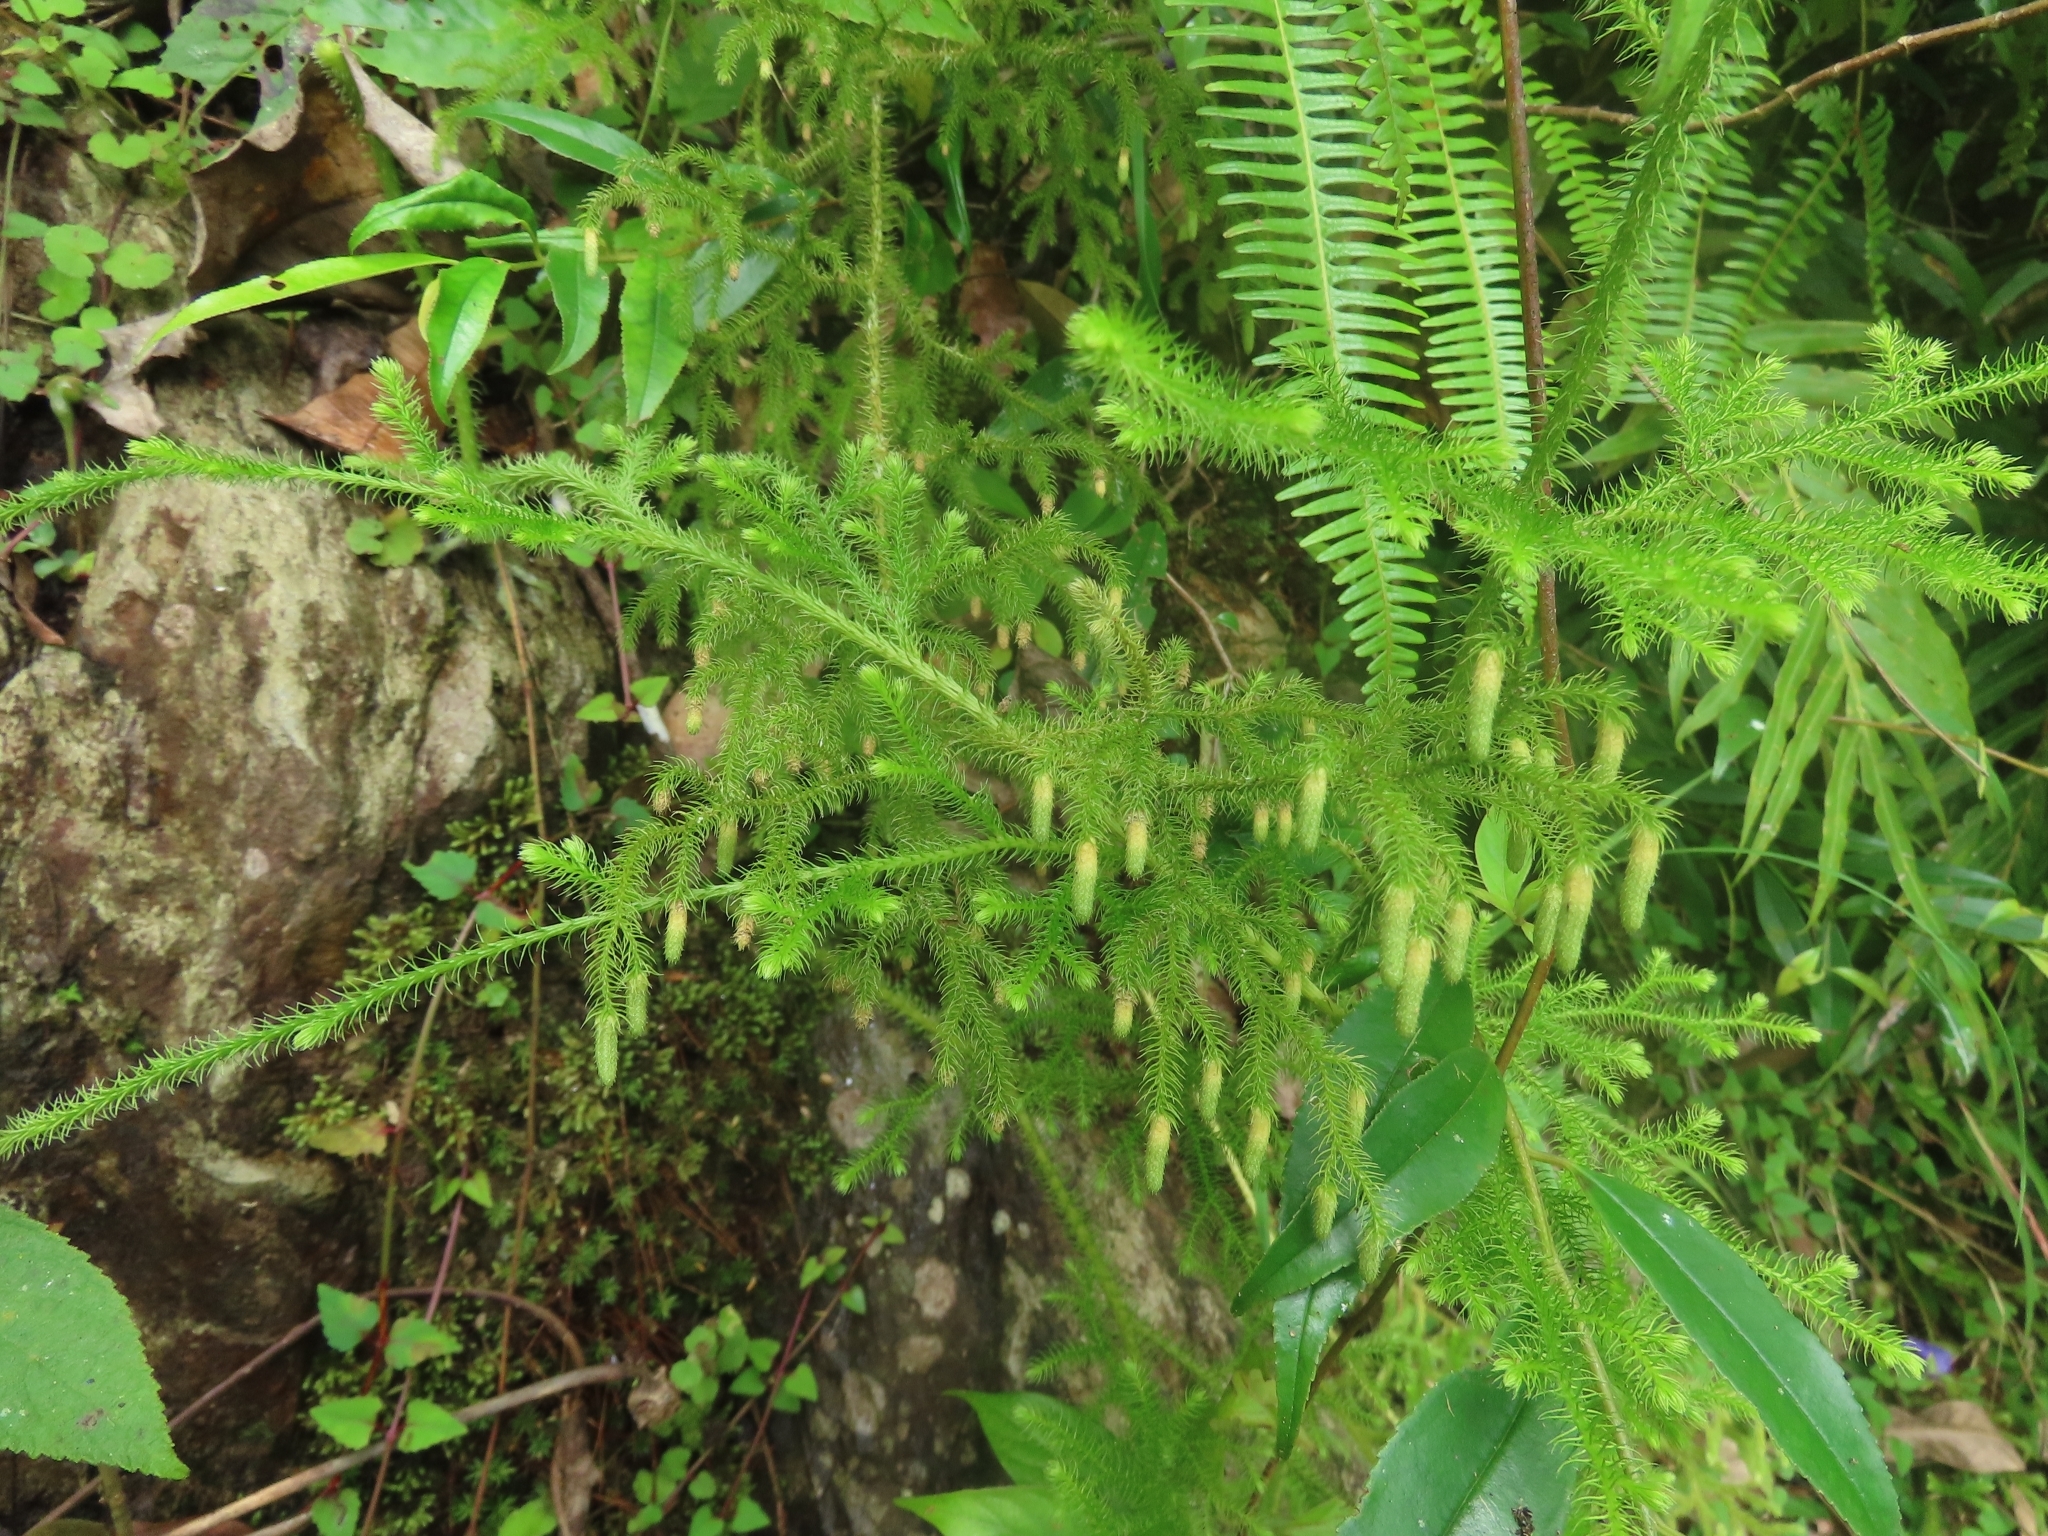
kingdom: Plantae
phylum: Tracheophyta
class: Lycopodiopsida
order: Lycopodiales
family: Lycopodiaceae
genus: Palhinhaea
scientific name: Palhinhaea cernua
